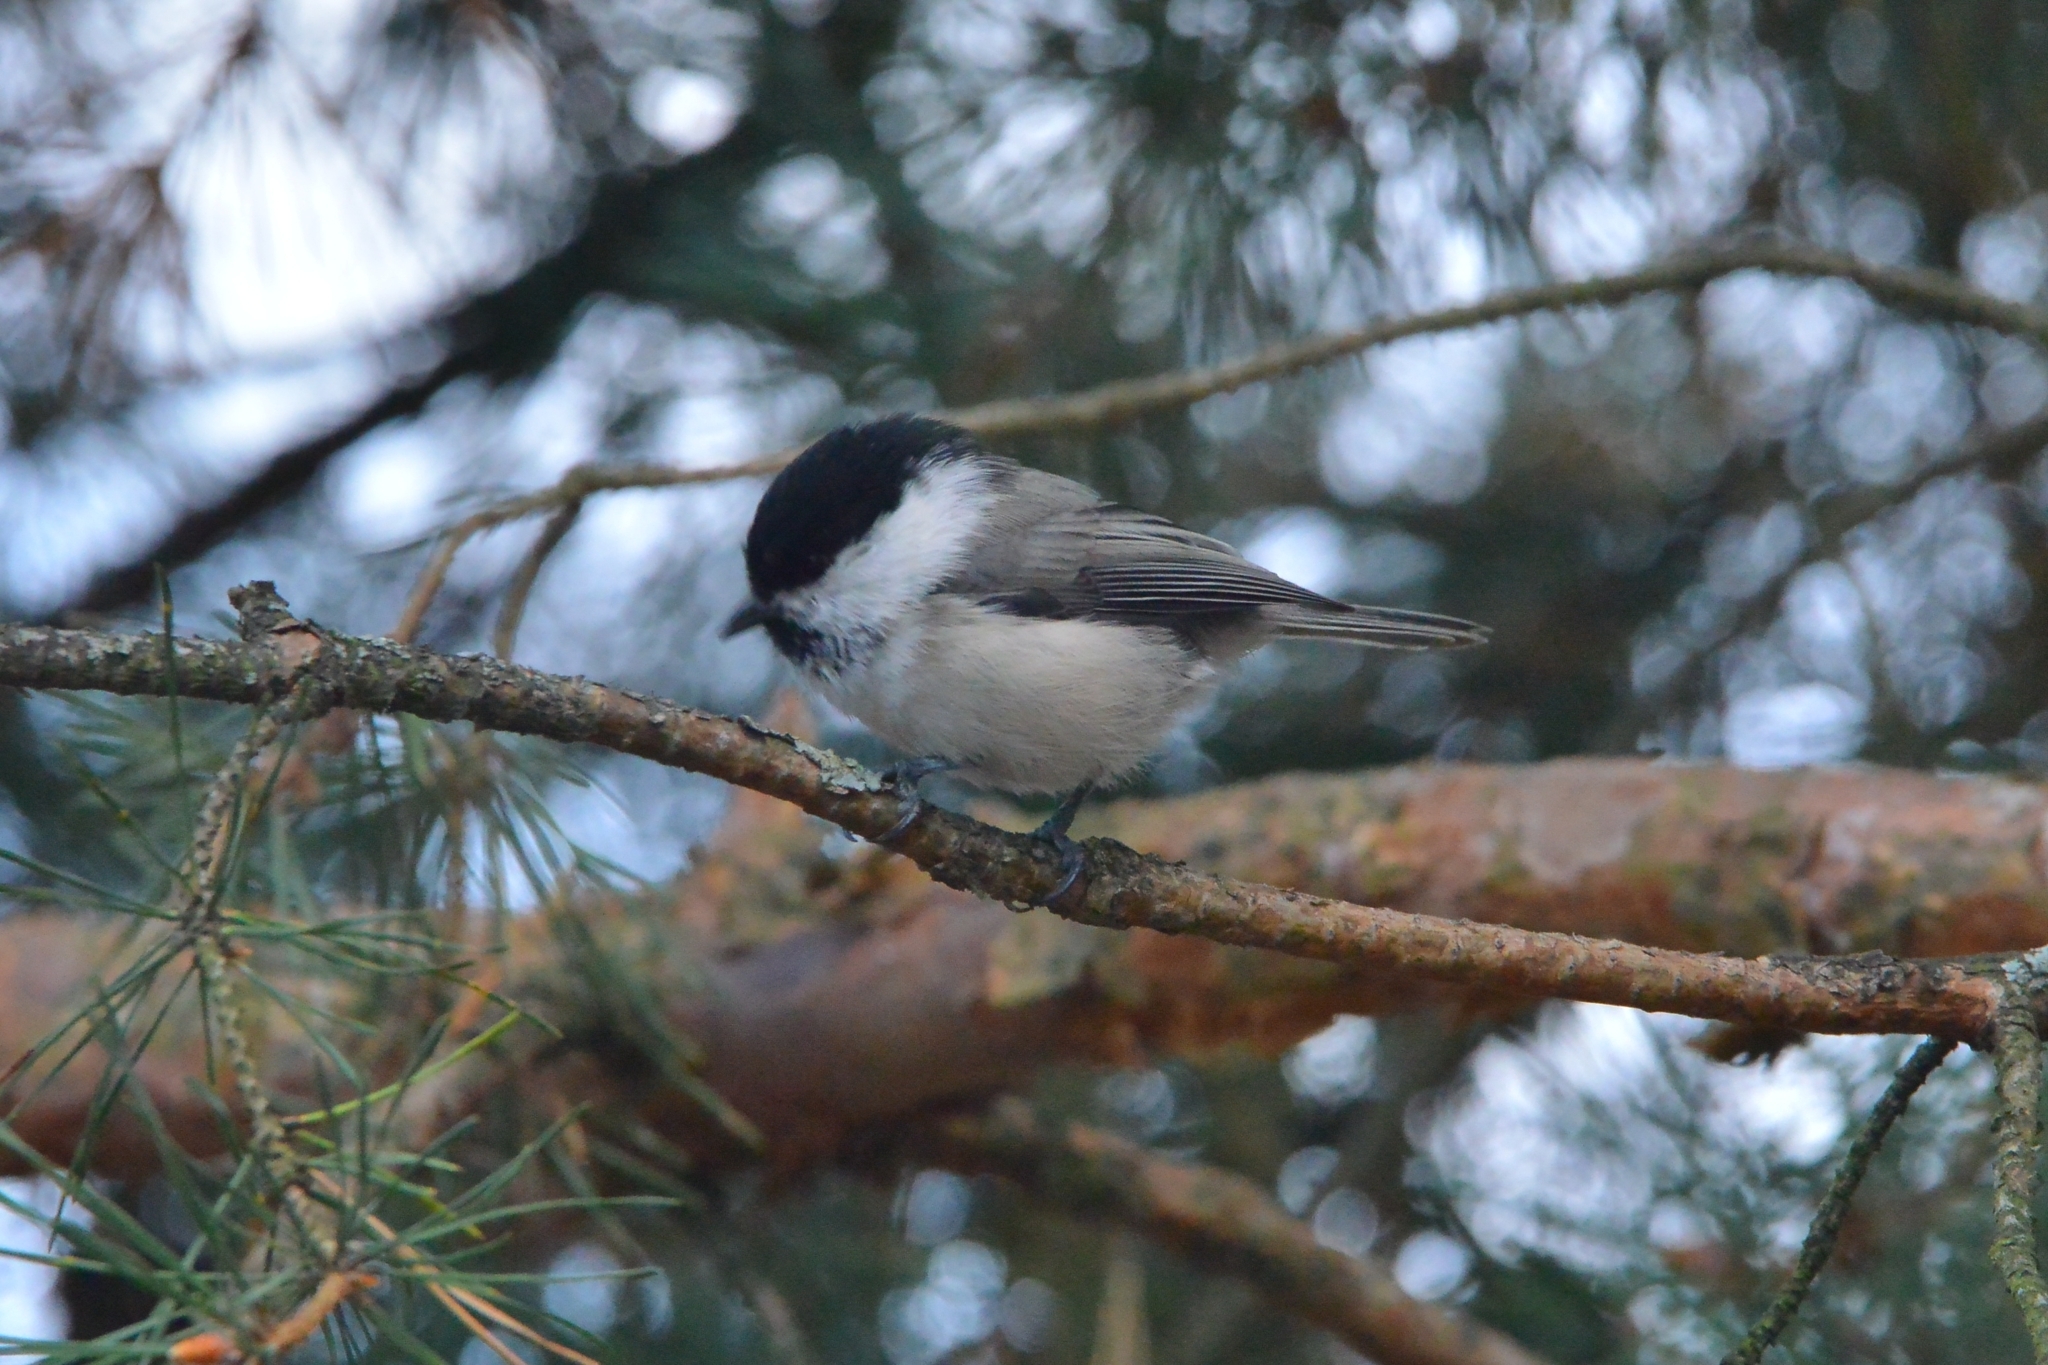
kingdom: Animalia
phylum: Chordata
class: Aves
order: Passeriformes
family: Paridae
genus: Poecile
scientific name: Poecile montanus
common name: Willow tit
